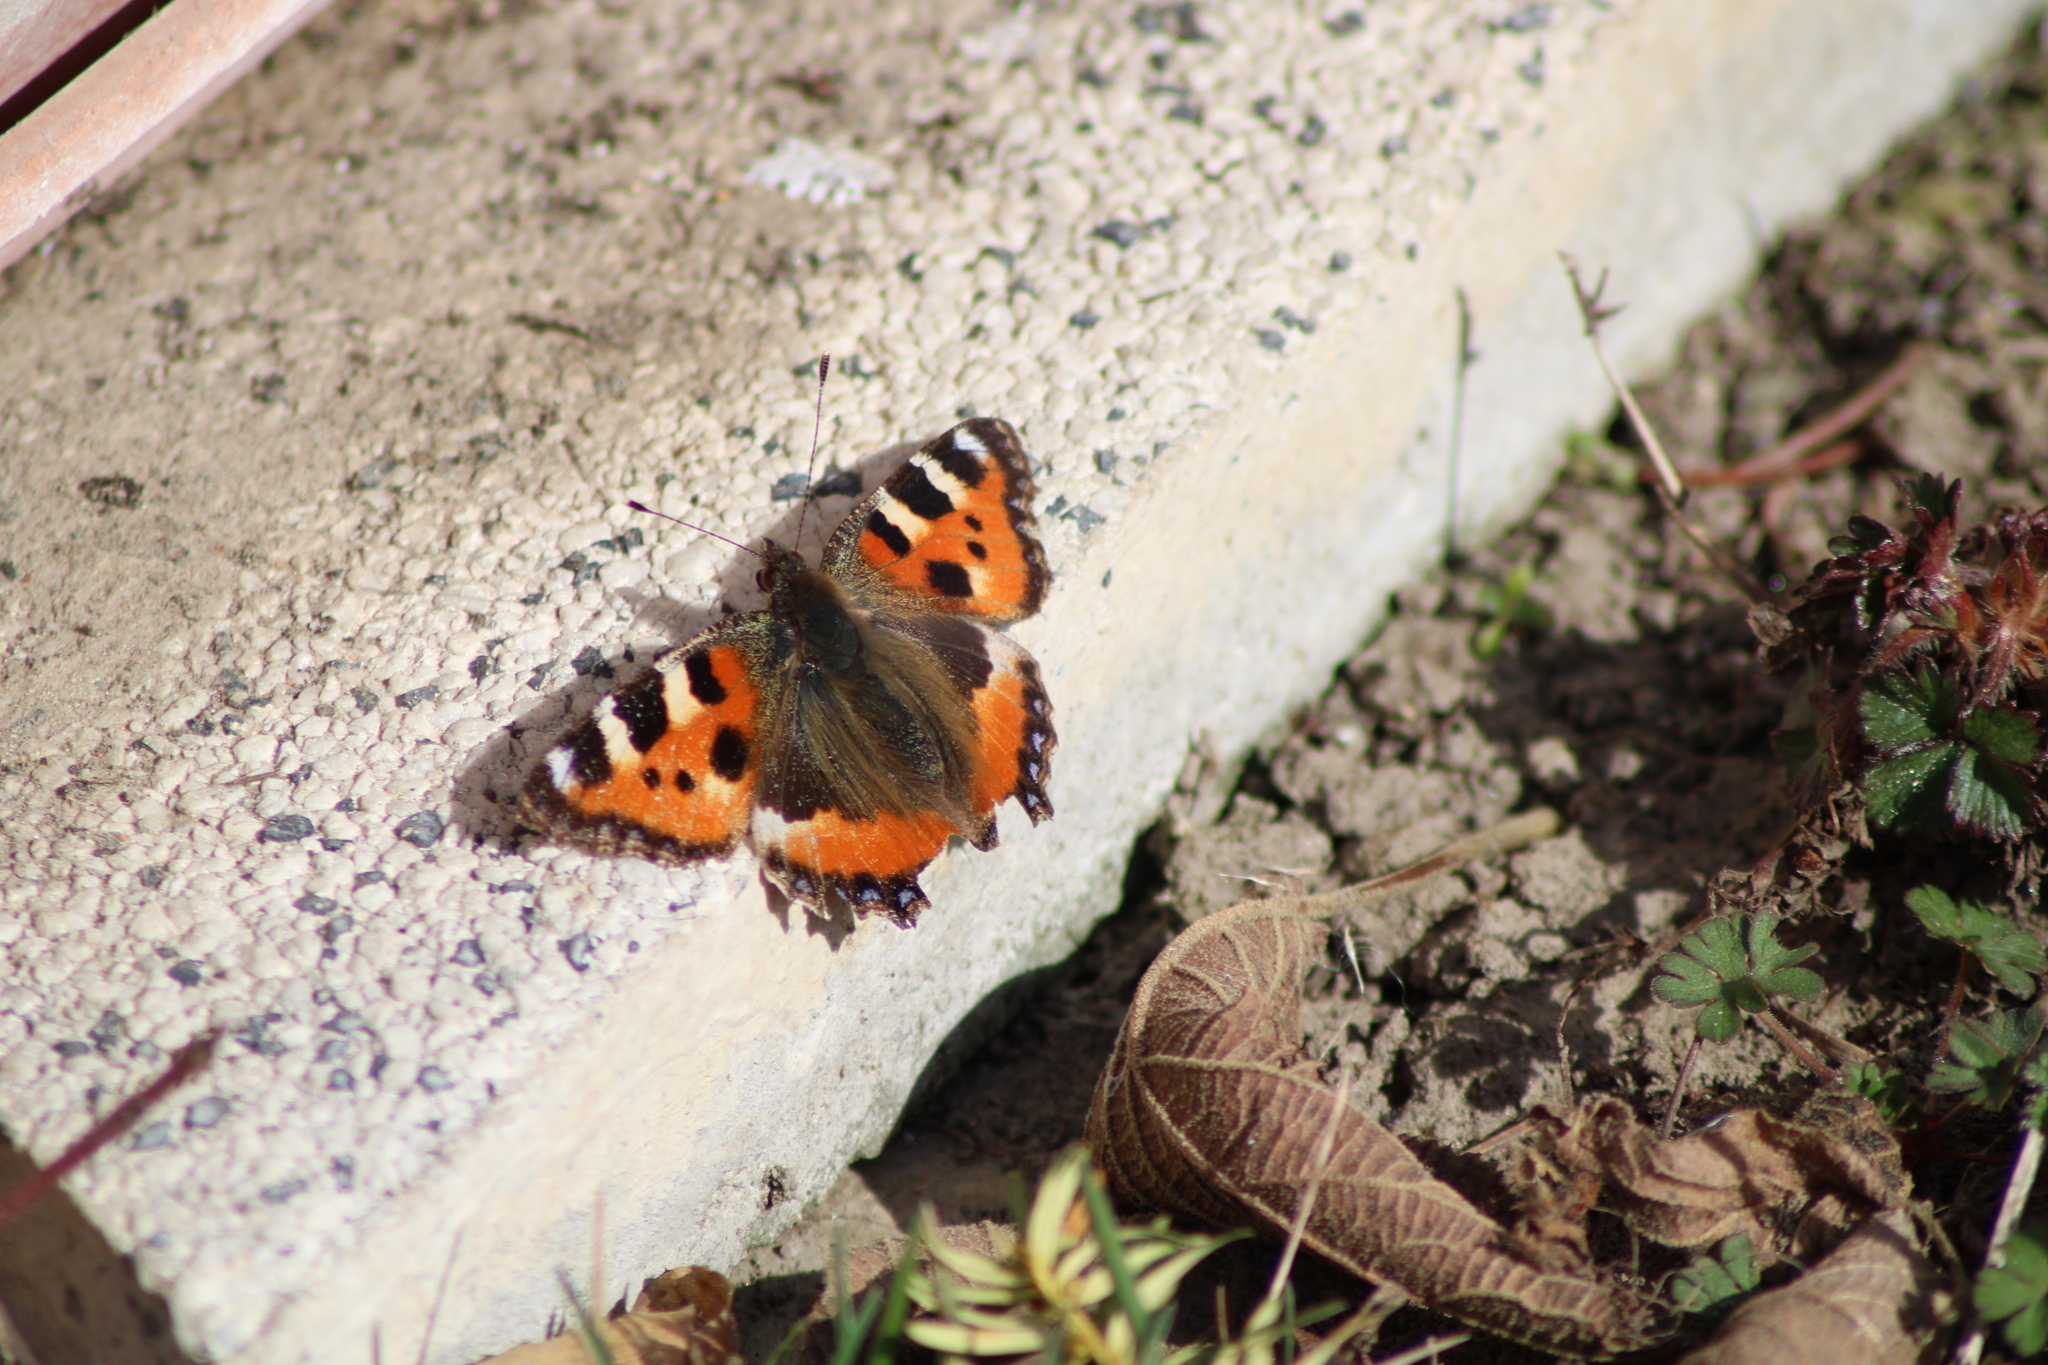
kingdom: Animalia
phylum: Arthropoda
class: Insecta
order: Lepidoptera
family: Nymphalidae
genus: Aglais
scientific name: Aglais urticae
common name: Small tortoiseshell
